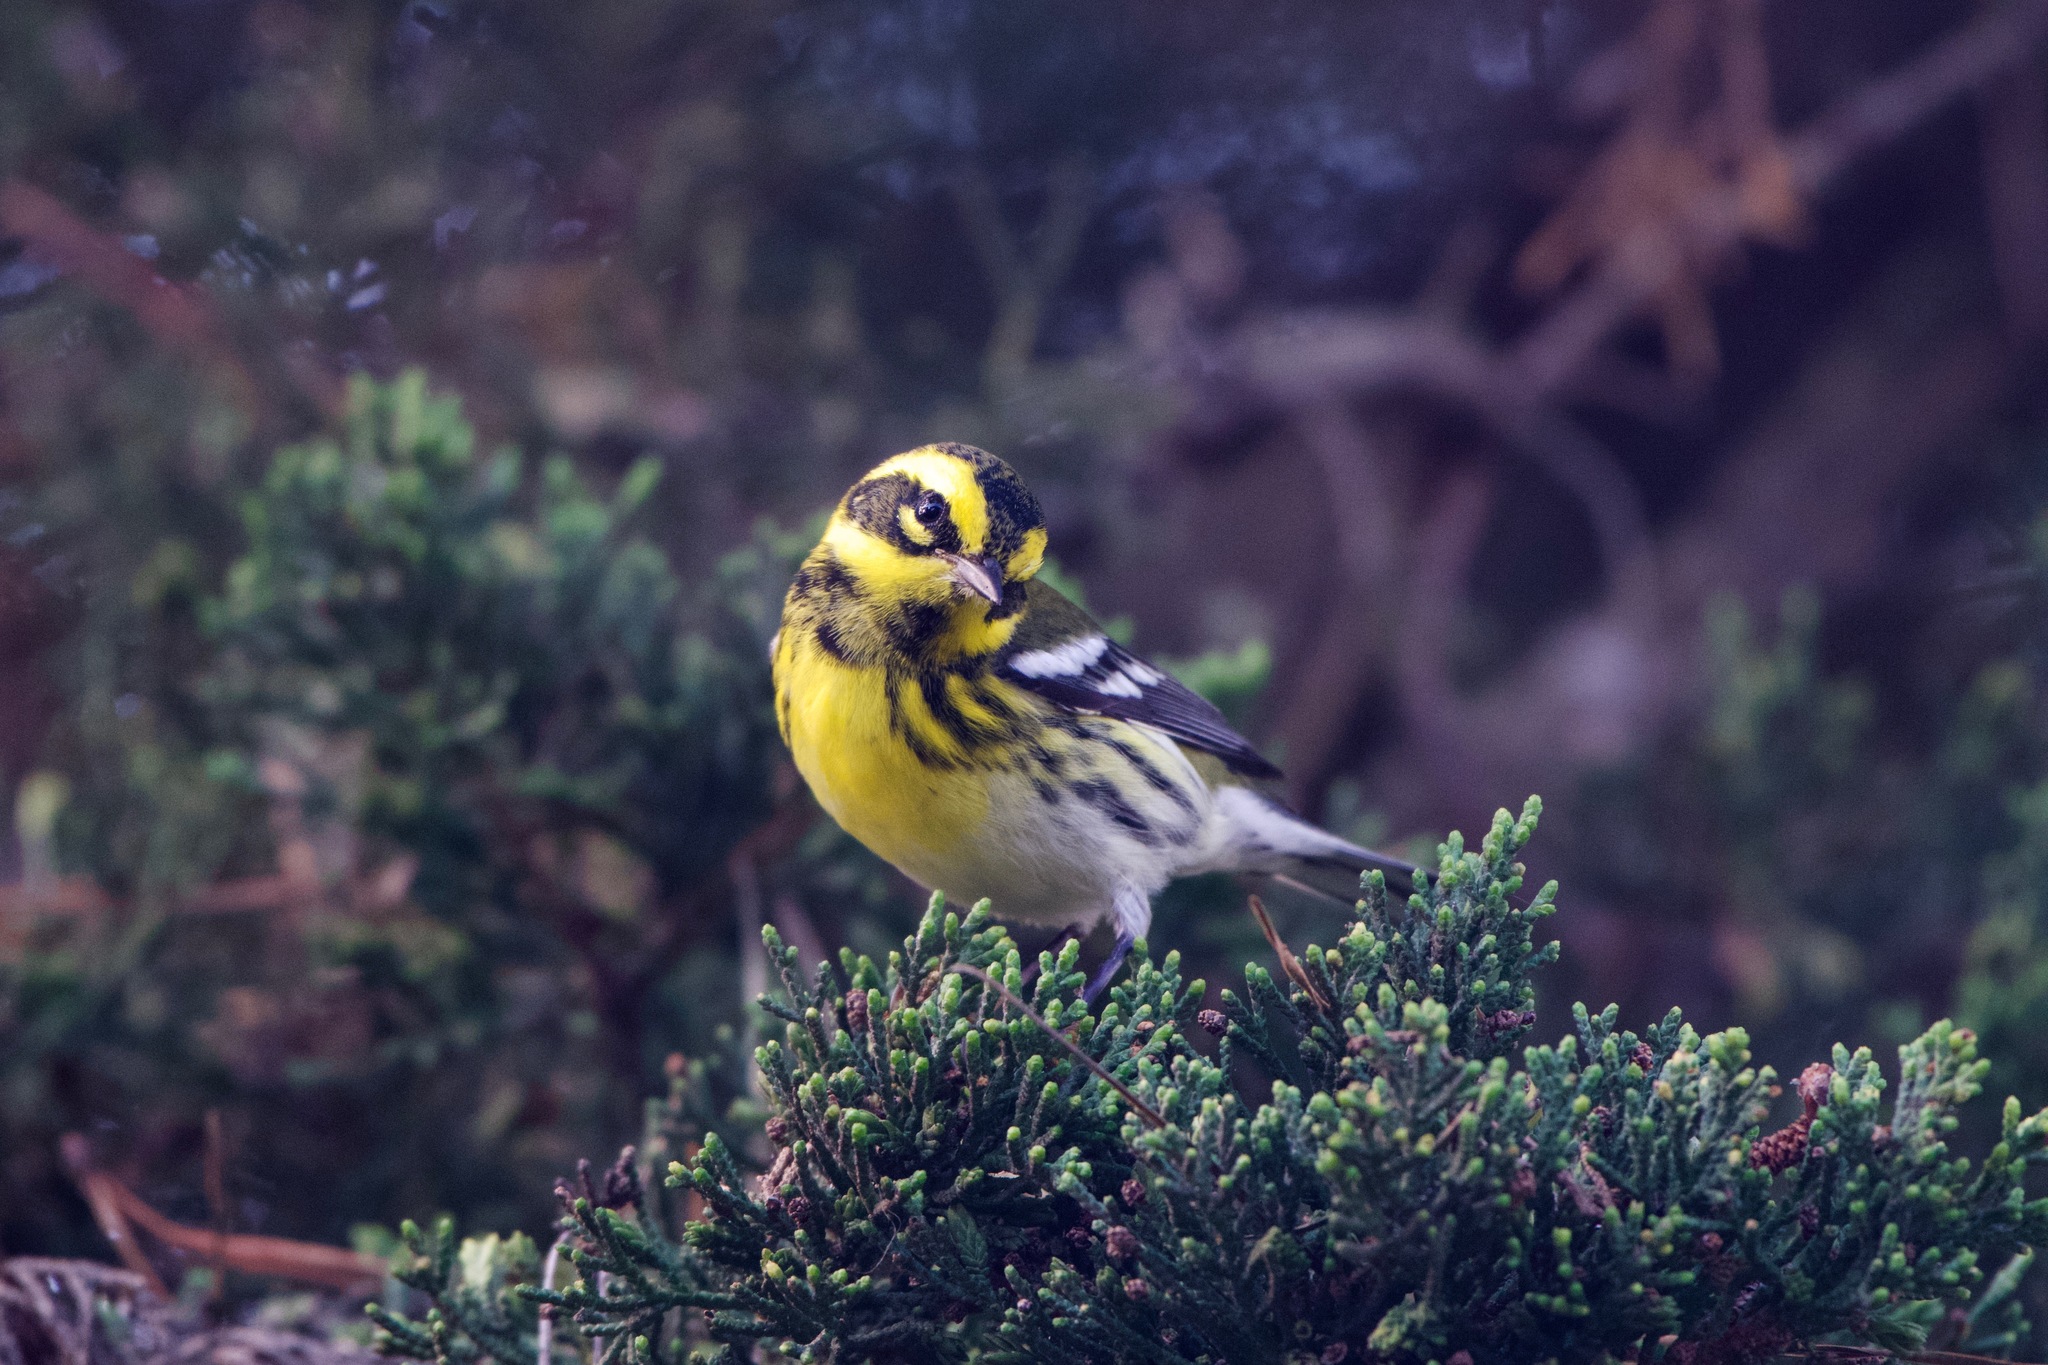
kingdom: Animalia
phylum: Chordata
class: Aves
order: Passeriformes
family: Parulidae
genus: Setophaga
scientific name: Setophaga townsendi
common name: Townsend's warbler
